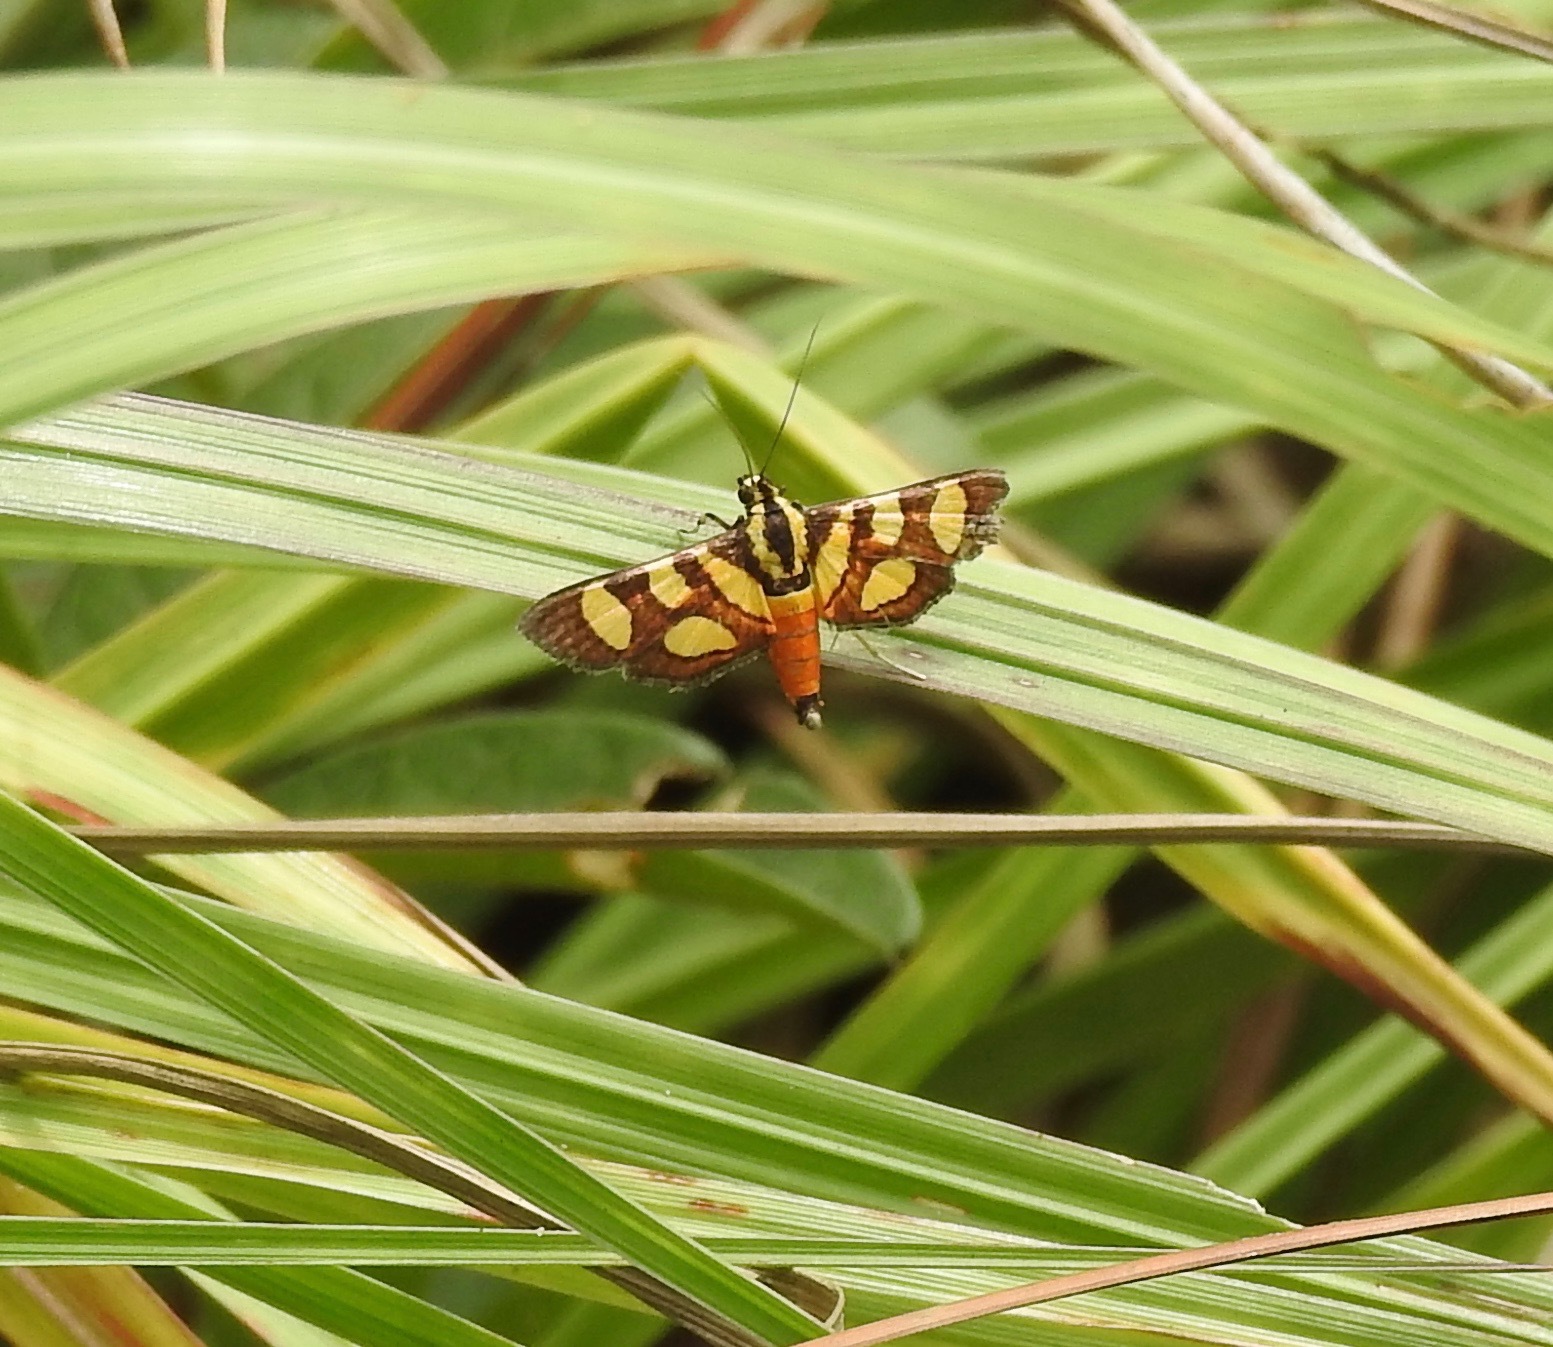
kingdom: Animalia
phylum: Arthropoda
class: Insecta
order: Lepidoptera
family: Crambidae
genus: Syngamia
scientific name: Syngamia florella
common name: Orange-spotted flower moth
